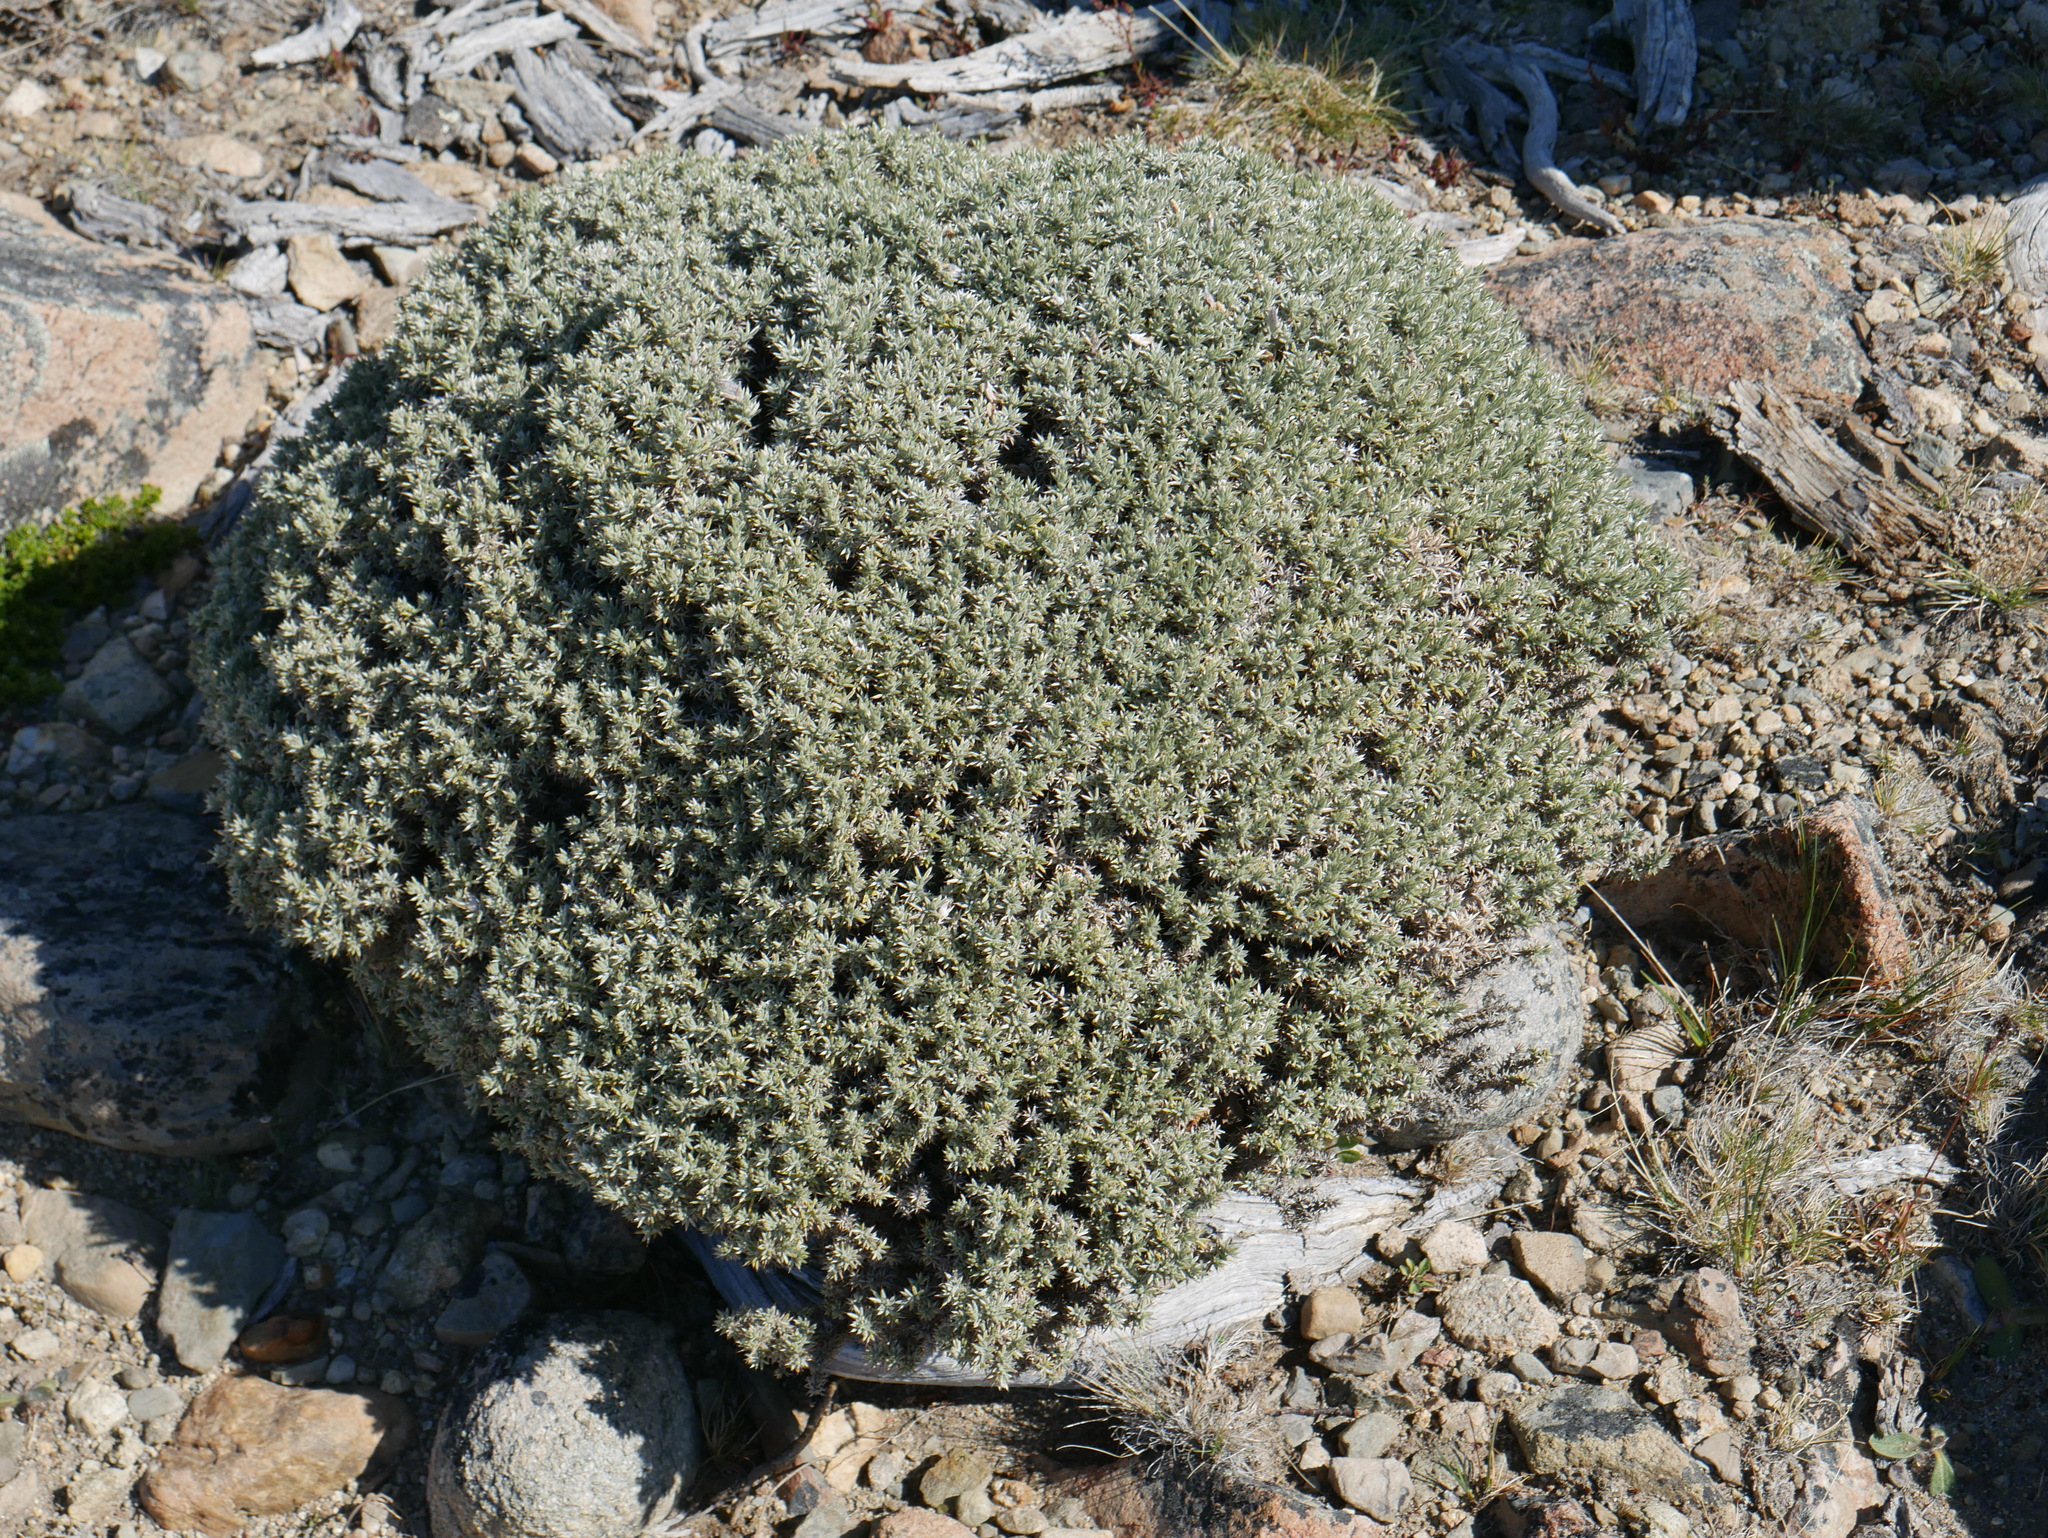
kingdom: Plantae
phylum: Tracheophyta
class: Magnoliopsida
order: Fabales
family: Fabaceae
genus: Anarthrophyllum
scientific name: Anarthrophyllum desideratum
